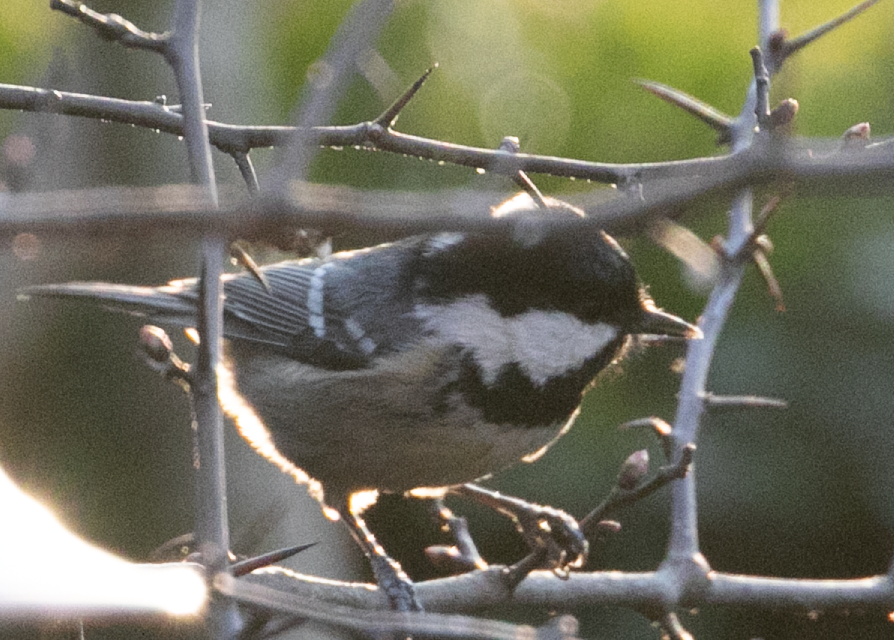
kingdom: Animalia
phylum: Chordata
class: Aves
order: Passeriformes
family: Paridae
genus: Periparus
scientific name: Periparus ater
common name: Coal tit
